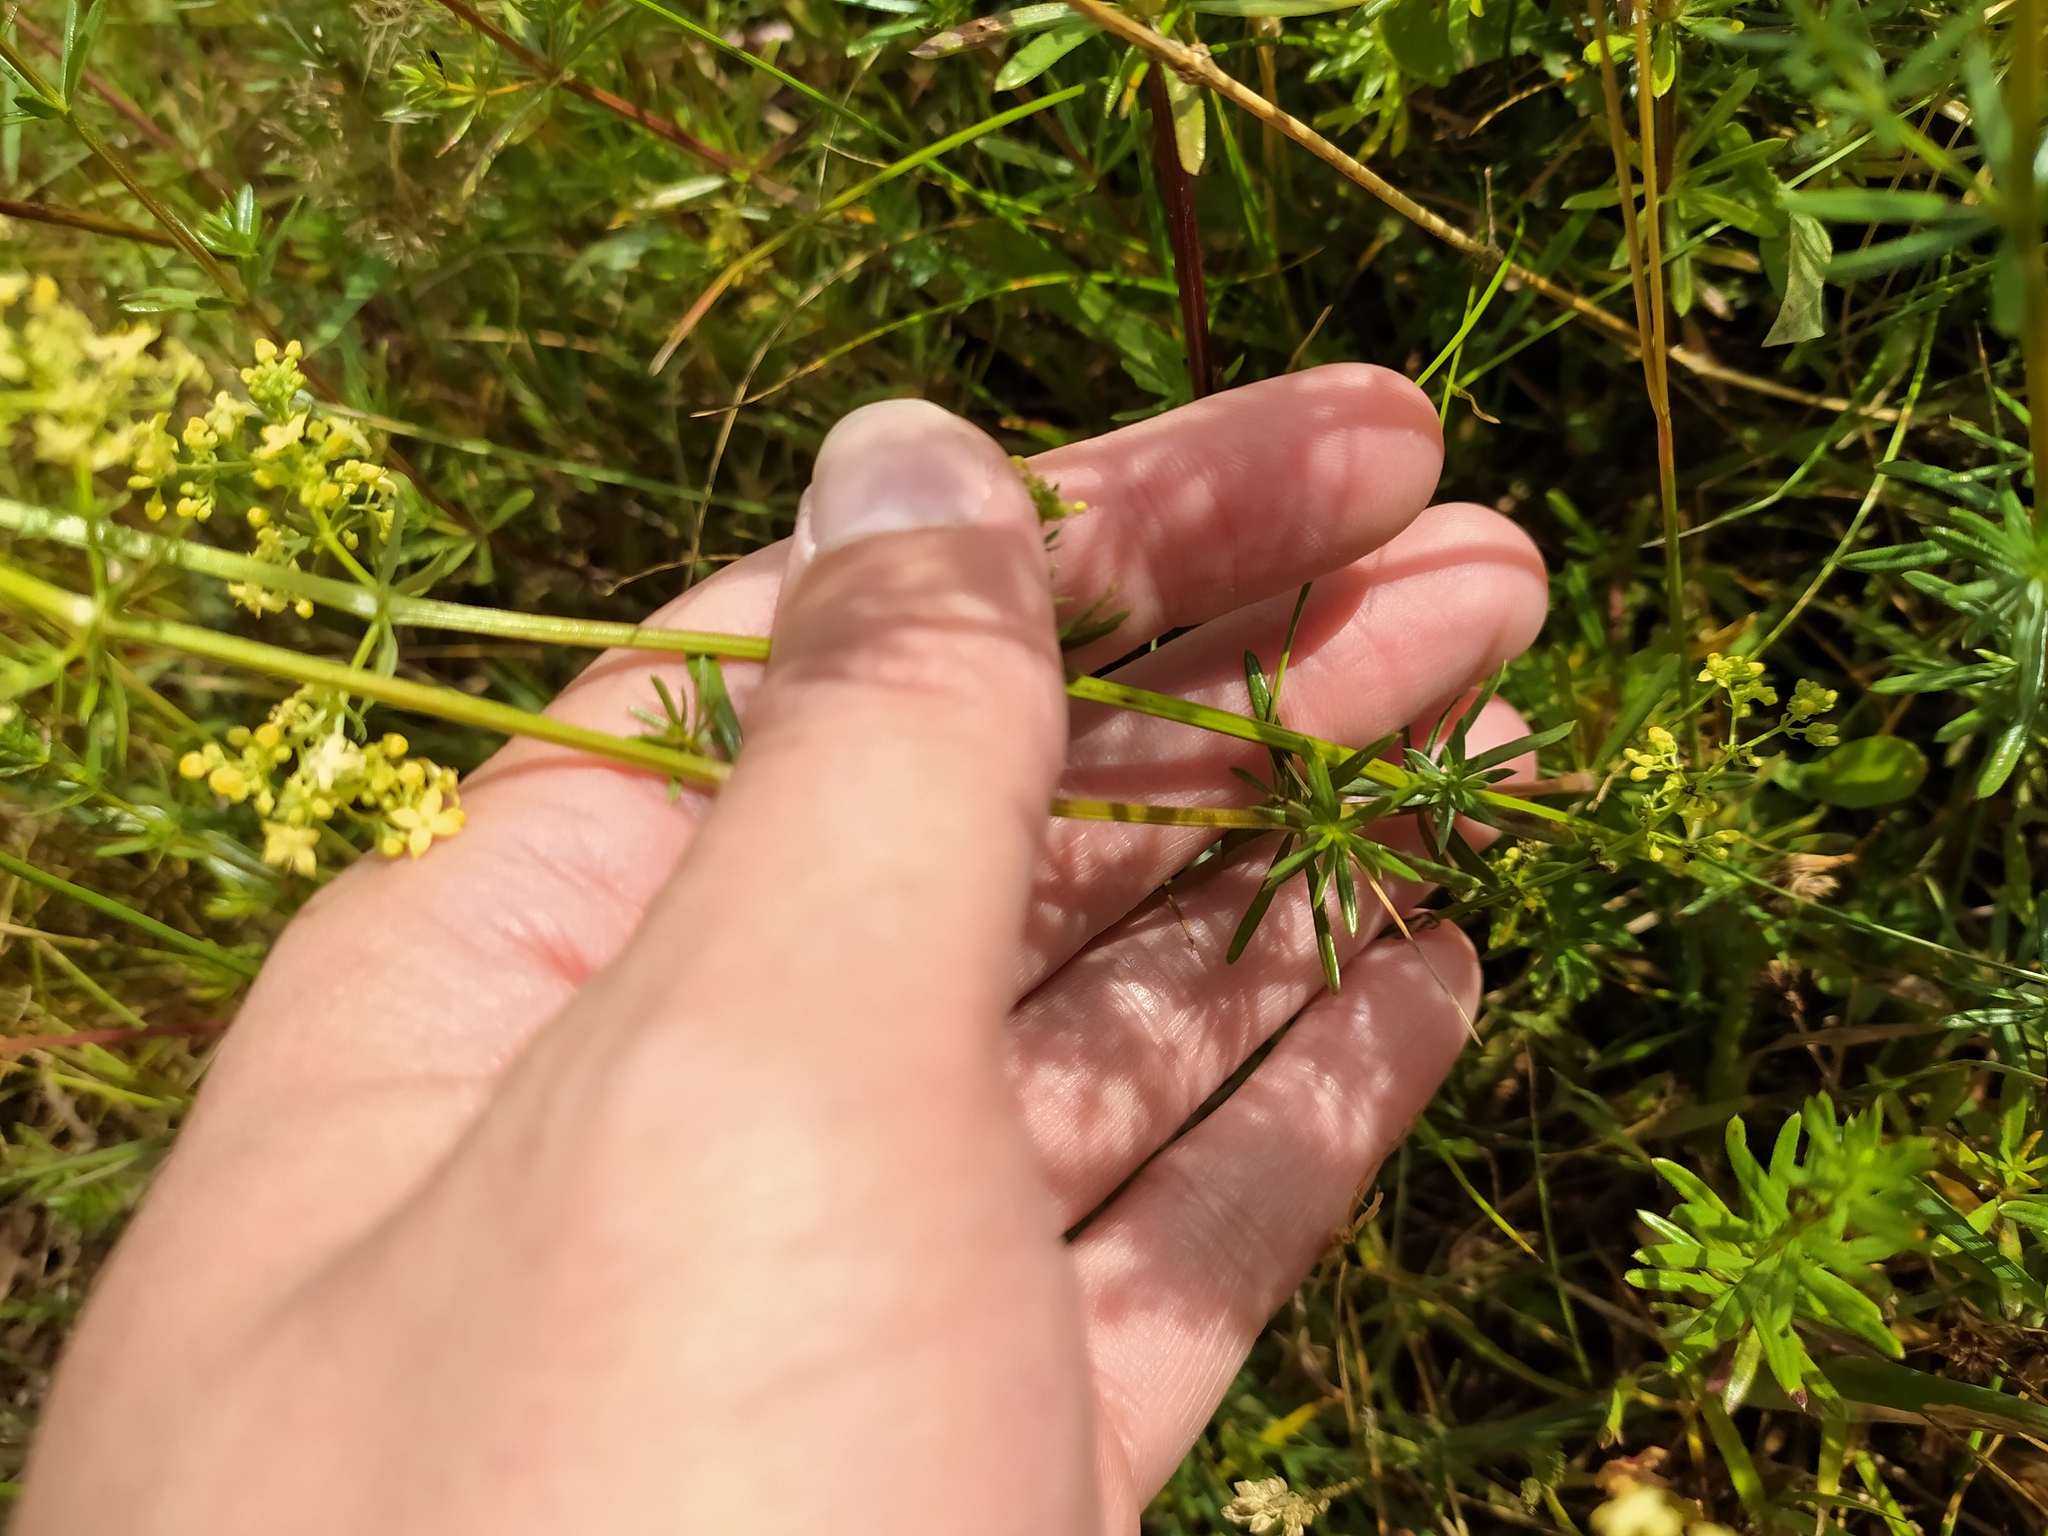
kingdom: Plantae
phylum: Tracheophyta
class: Magnoliopsida
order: Gentianales
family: Rubiaceae
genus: Galium
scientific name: Galium pomeranicum
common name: Bedstraw
